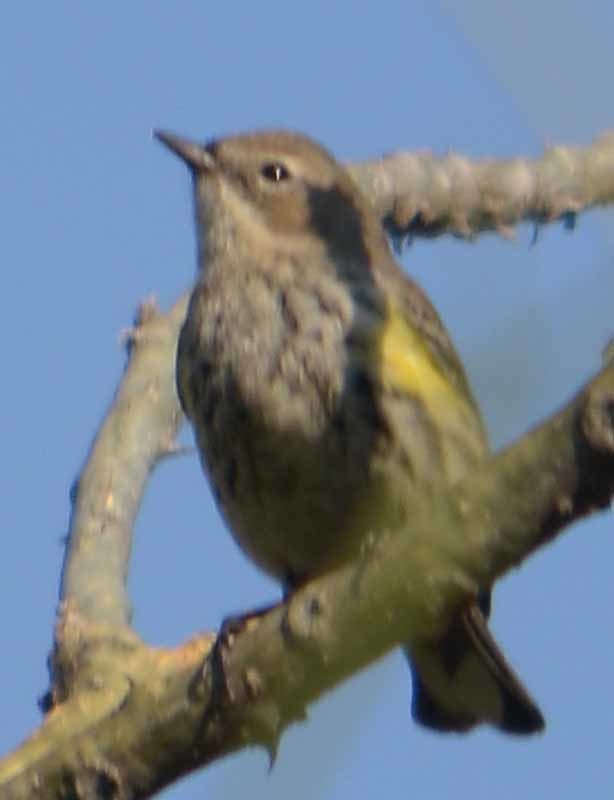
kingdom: Animalia
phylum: Chordata
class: Aves
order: Passeriformes
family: Parulidae
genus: Setophaga
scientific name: Setophaga coronata
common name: Myrtle warbler
